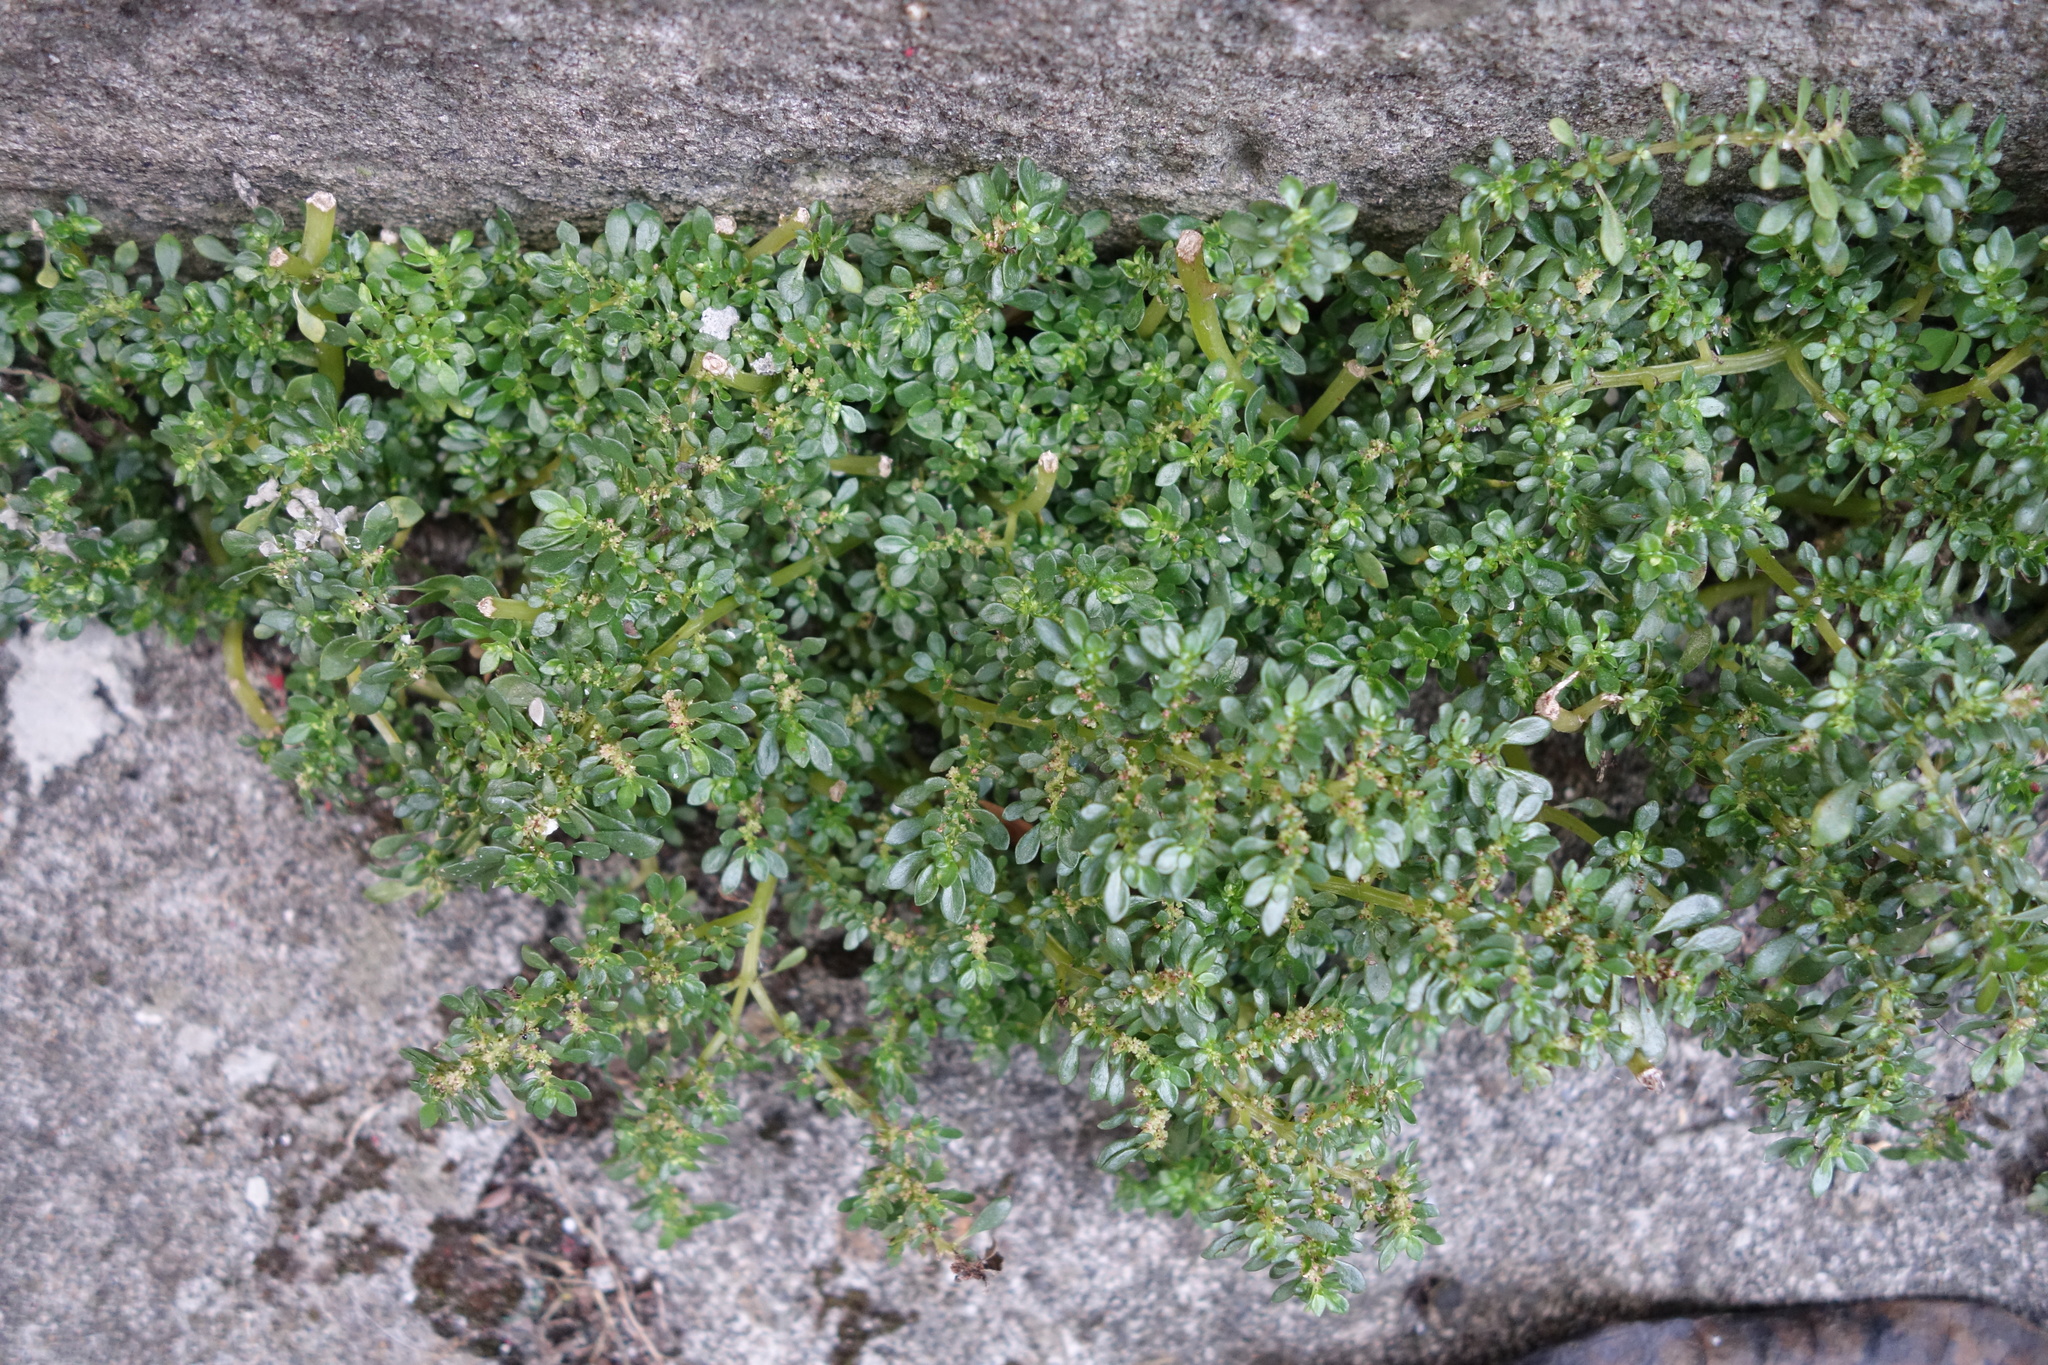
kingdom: Plantae
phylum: Tracheophyta
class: Magnoliopsida
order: Rosales
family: Urticaceae
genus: Pilea
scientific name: Pilea microphylla
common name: Artillery-plant
